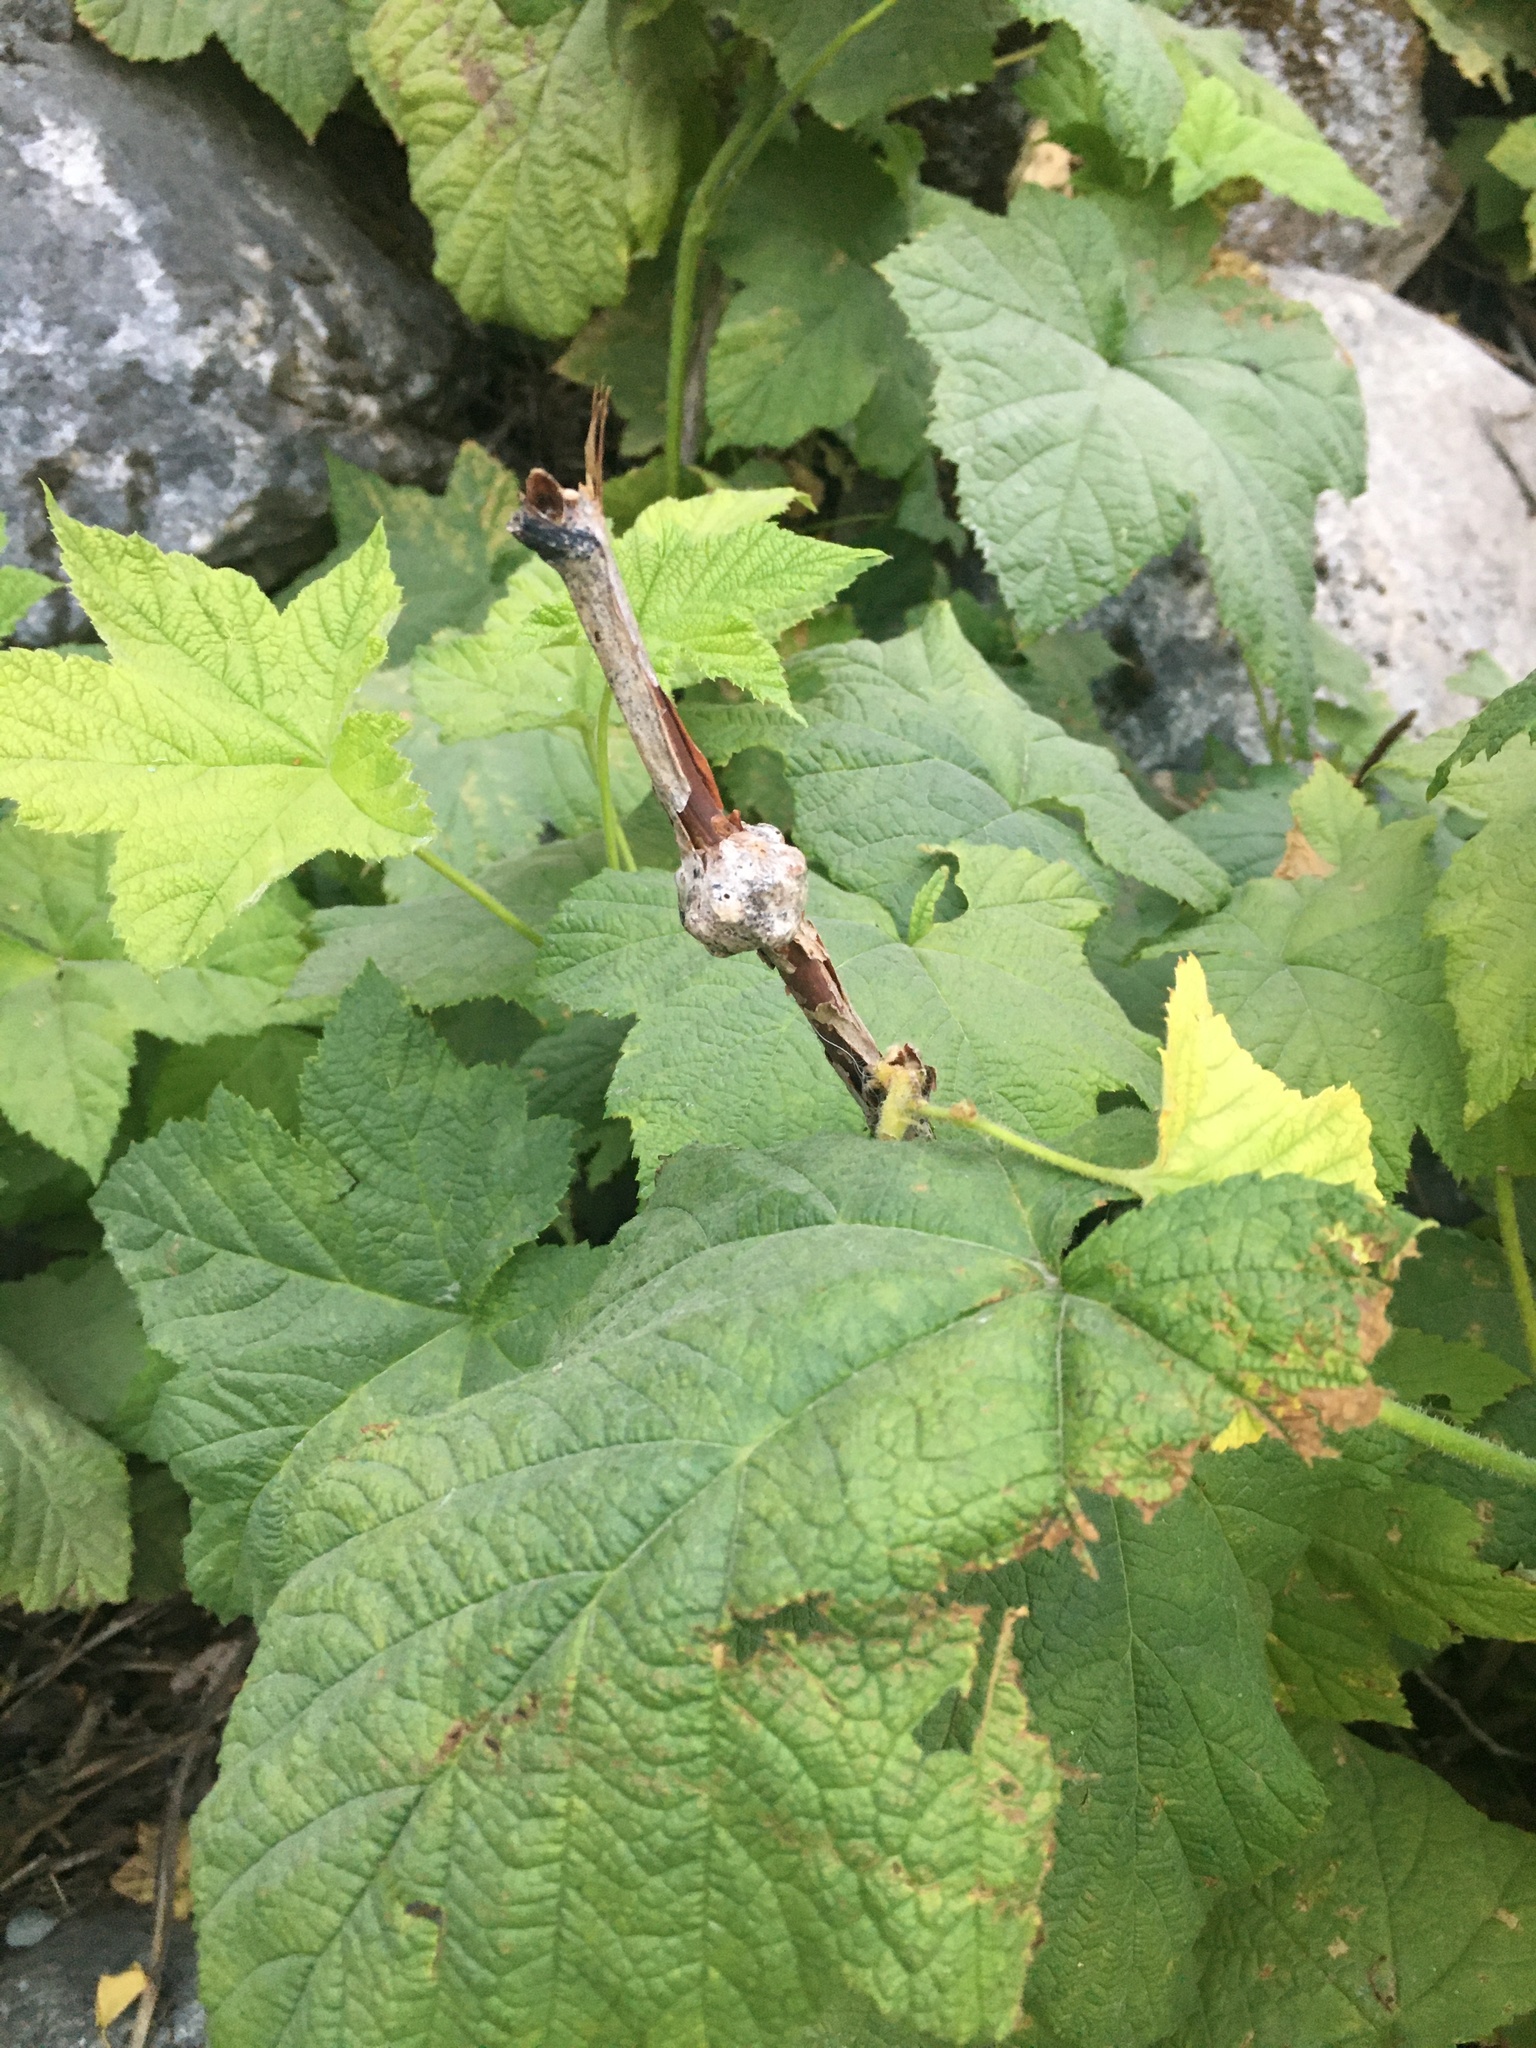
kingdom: Plantae
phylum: Tracheophyta
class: Magnoliopsida
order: Rosales
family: Rosaceae
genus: Rubus
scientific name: Rubus parviflorus
